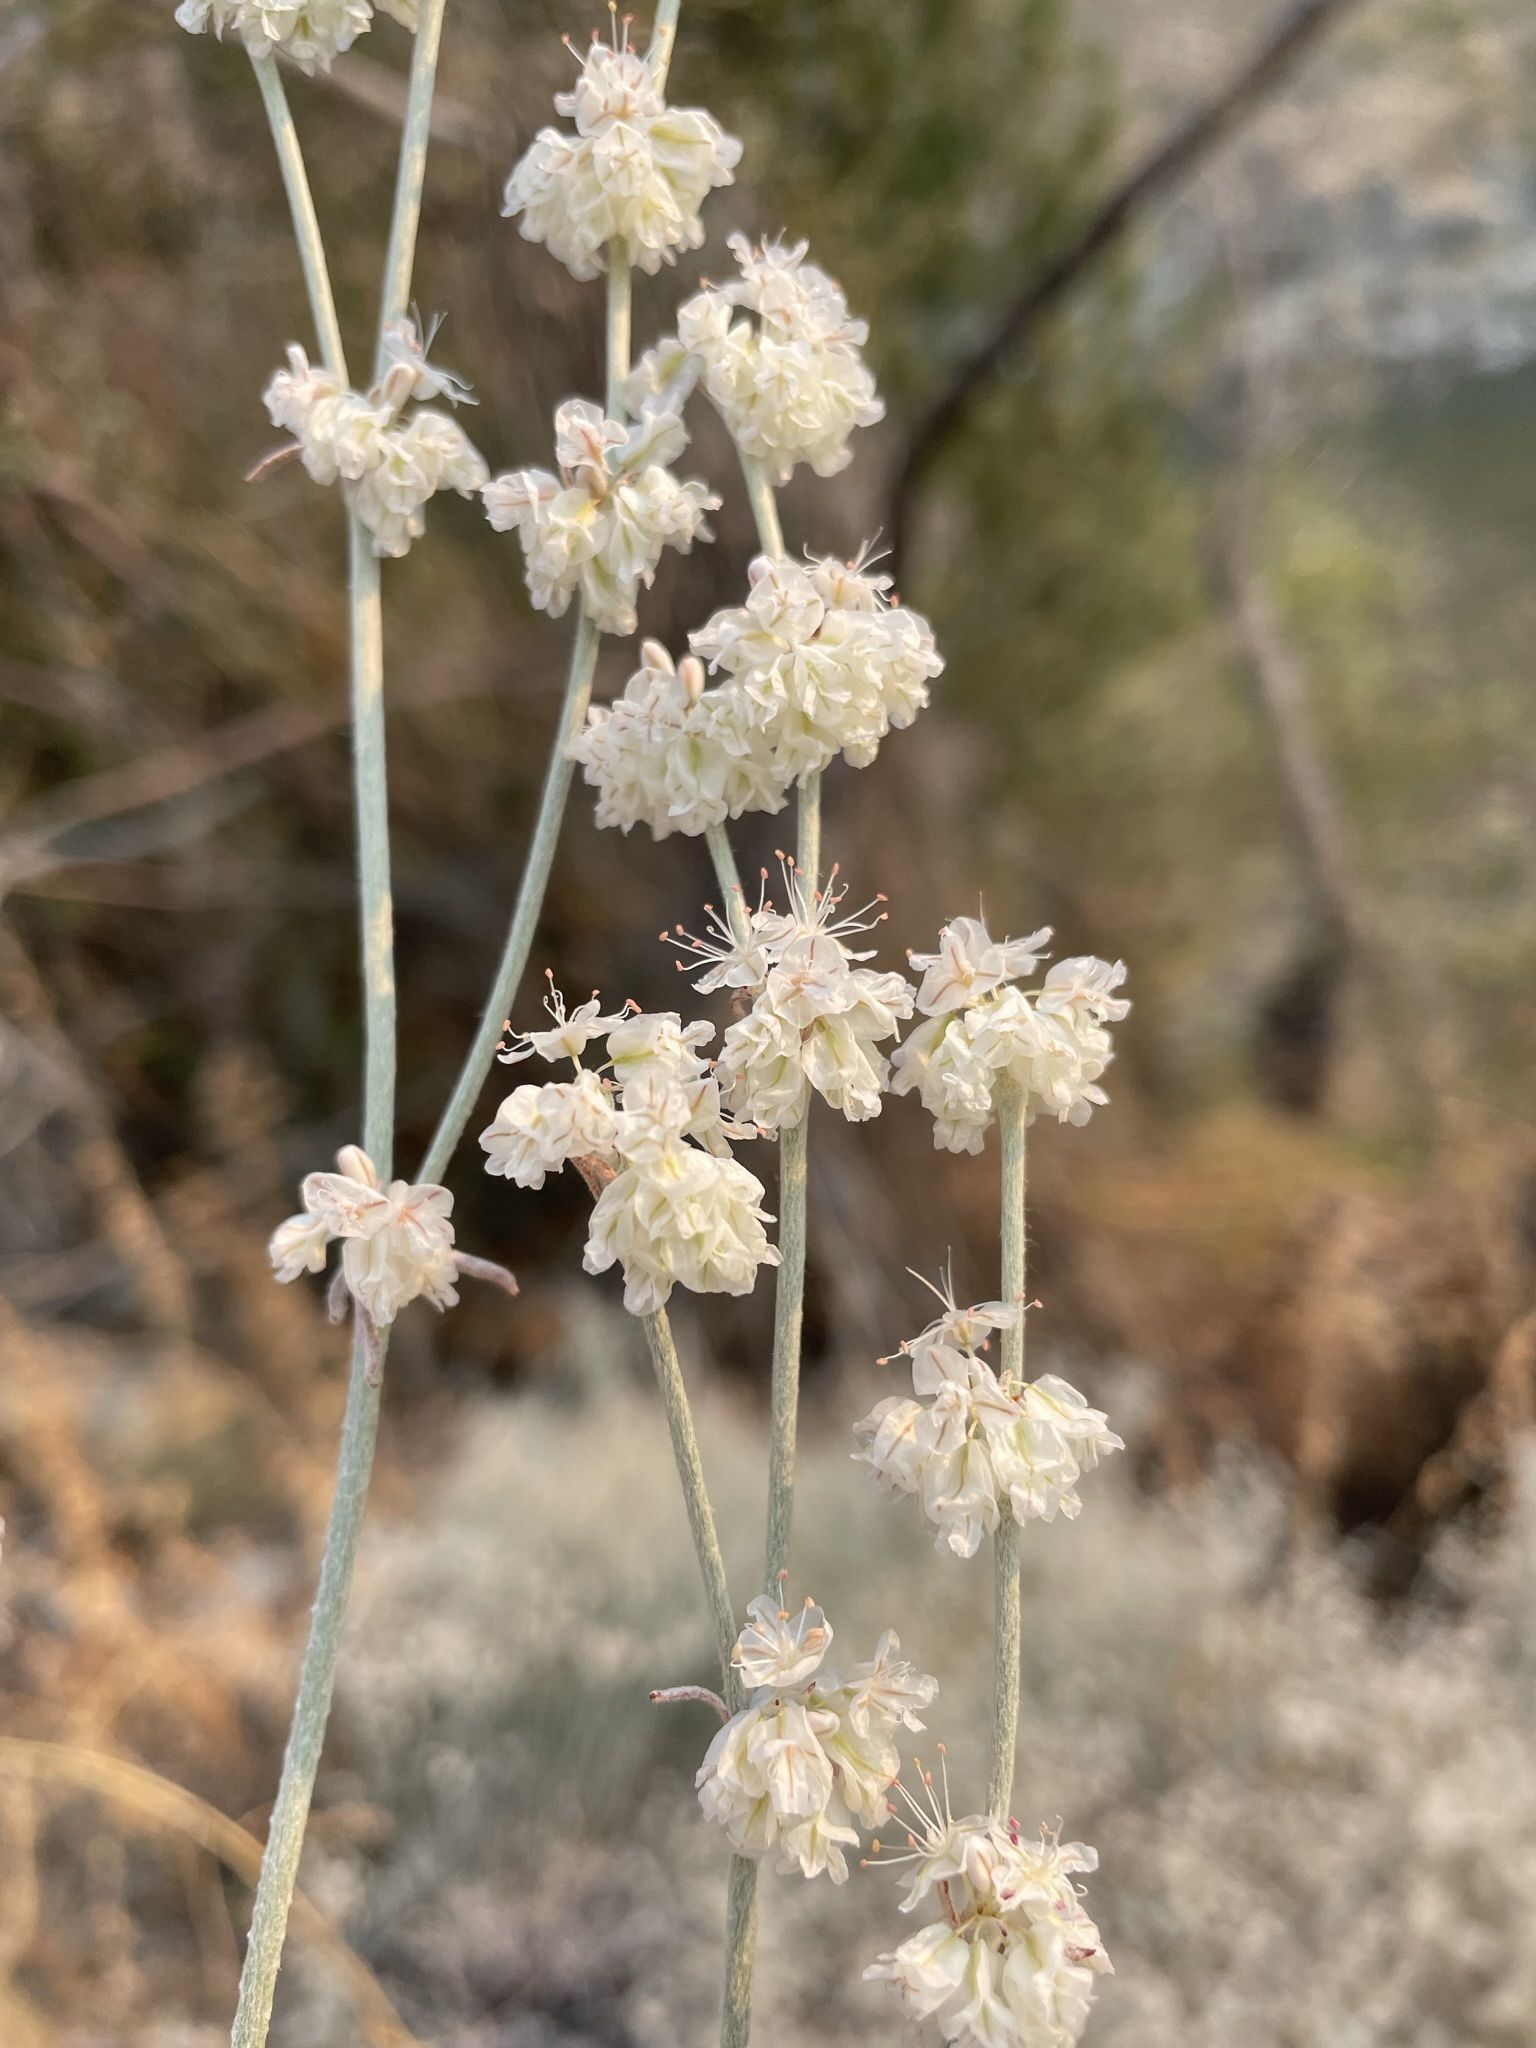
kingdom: Plantae
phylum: Tracheophyta
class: Magnoliopsida
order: Caryophyllales
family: Polygonaceae
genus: Eriogonum
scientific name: Eriogonum niveum
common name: Snow wild buckwheat
